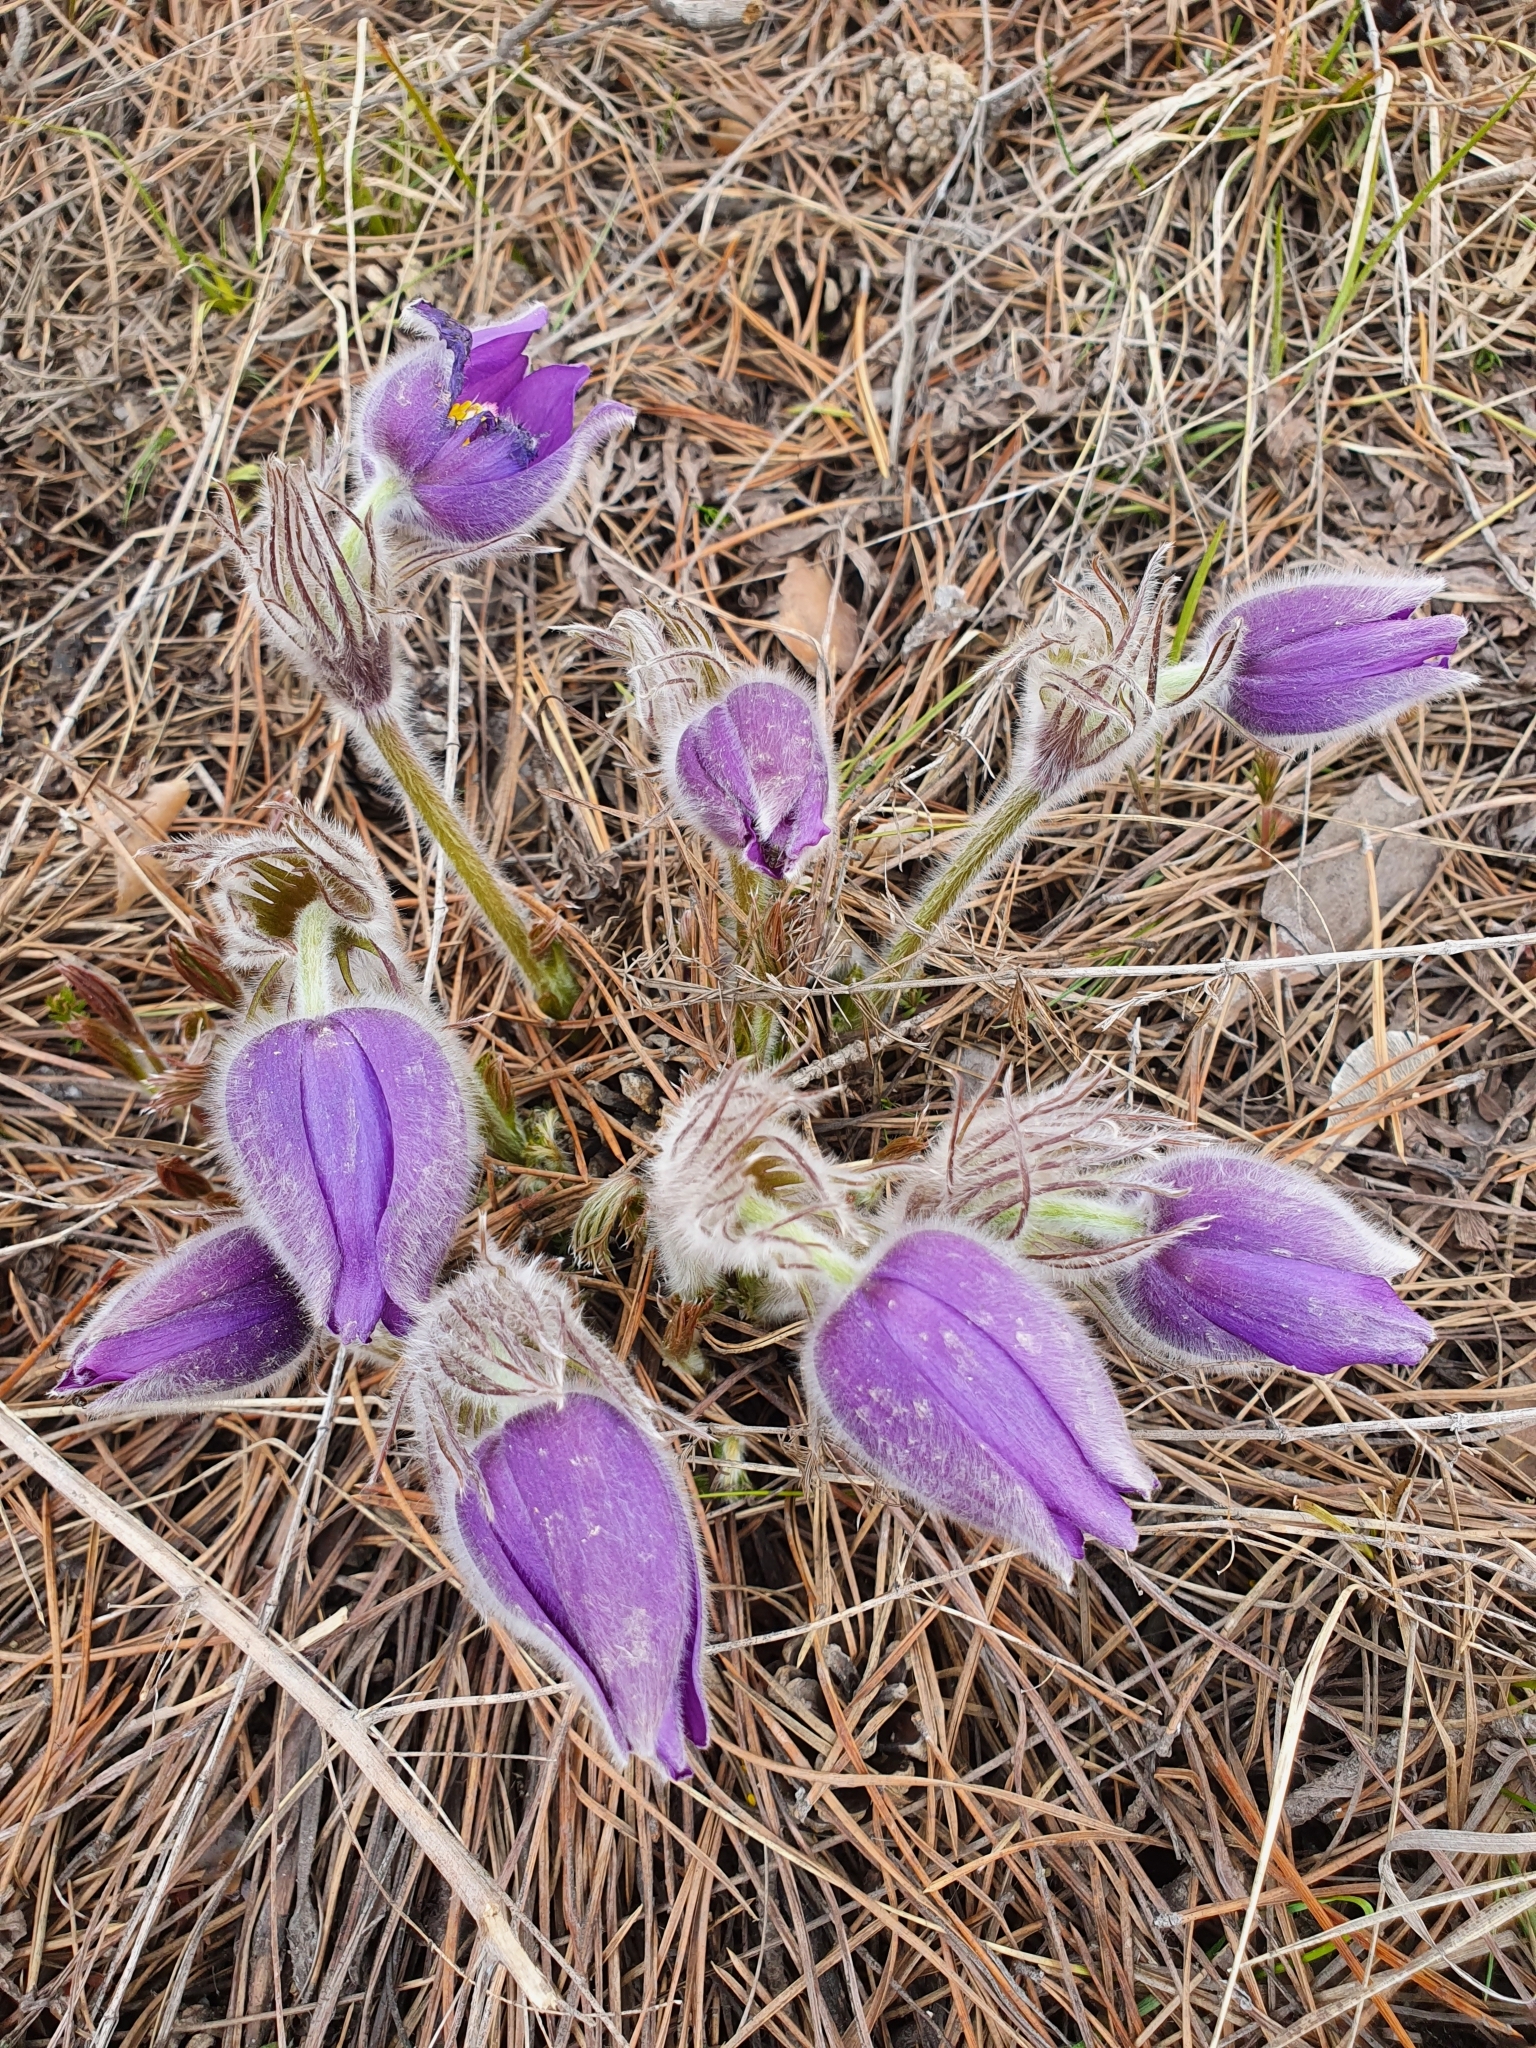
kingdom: Plantae
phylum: Tracheophyta
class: Magnoliopsida
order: Ranunculales
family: Ranunculaceae
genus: Pulsatilla
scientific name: Pulsatilla patens
